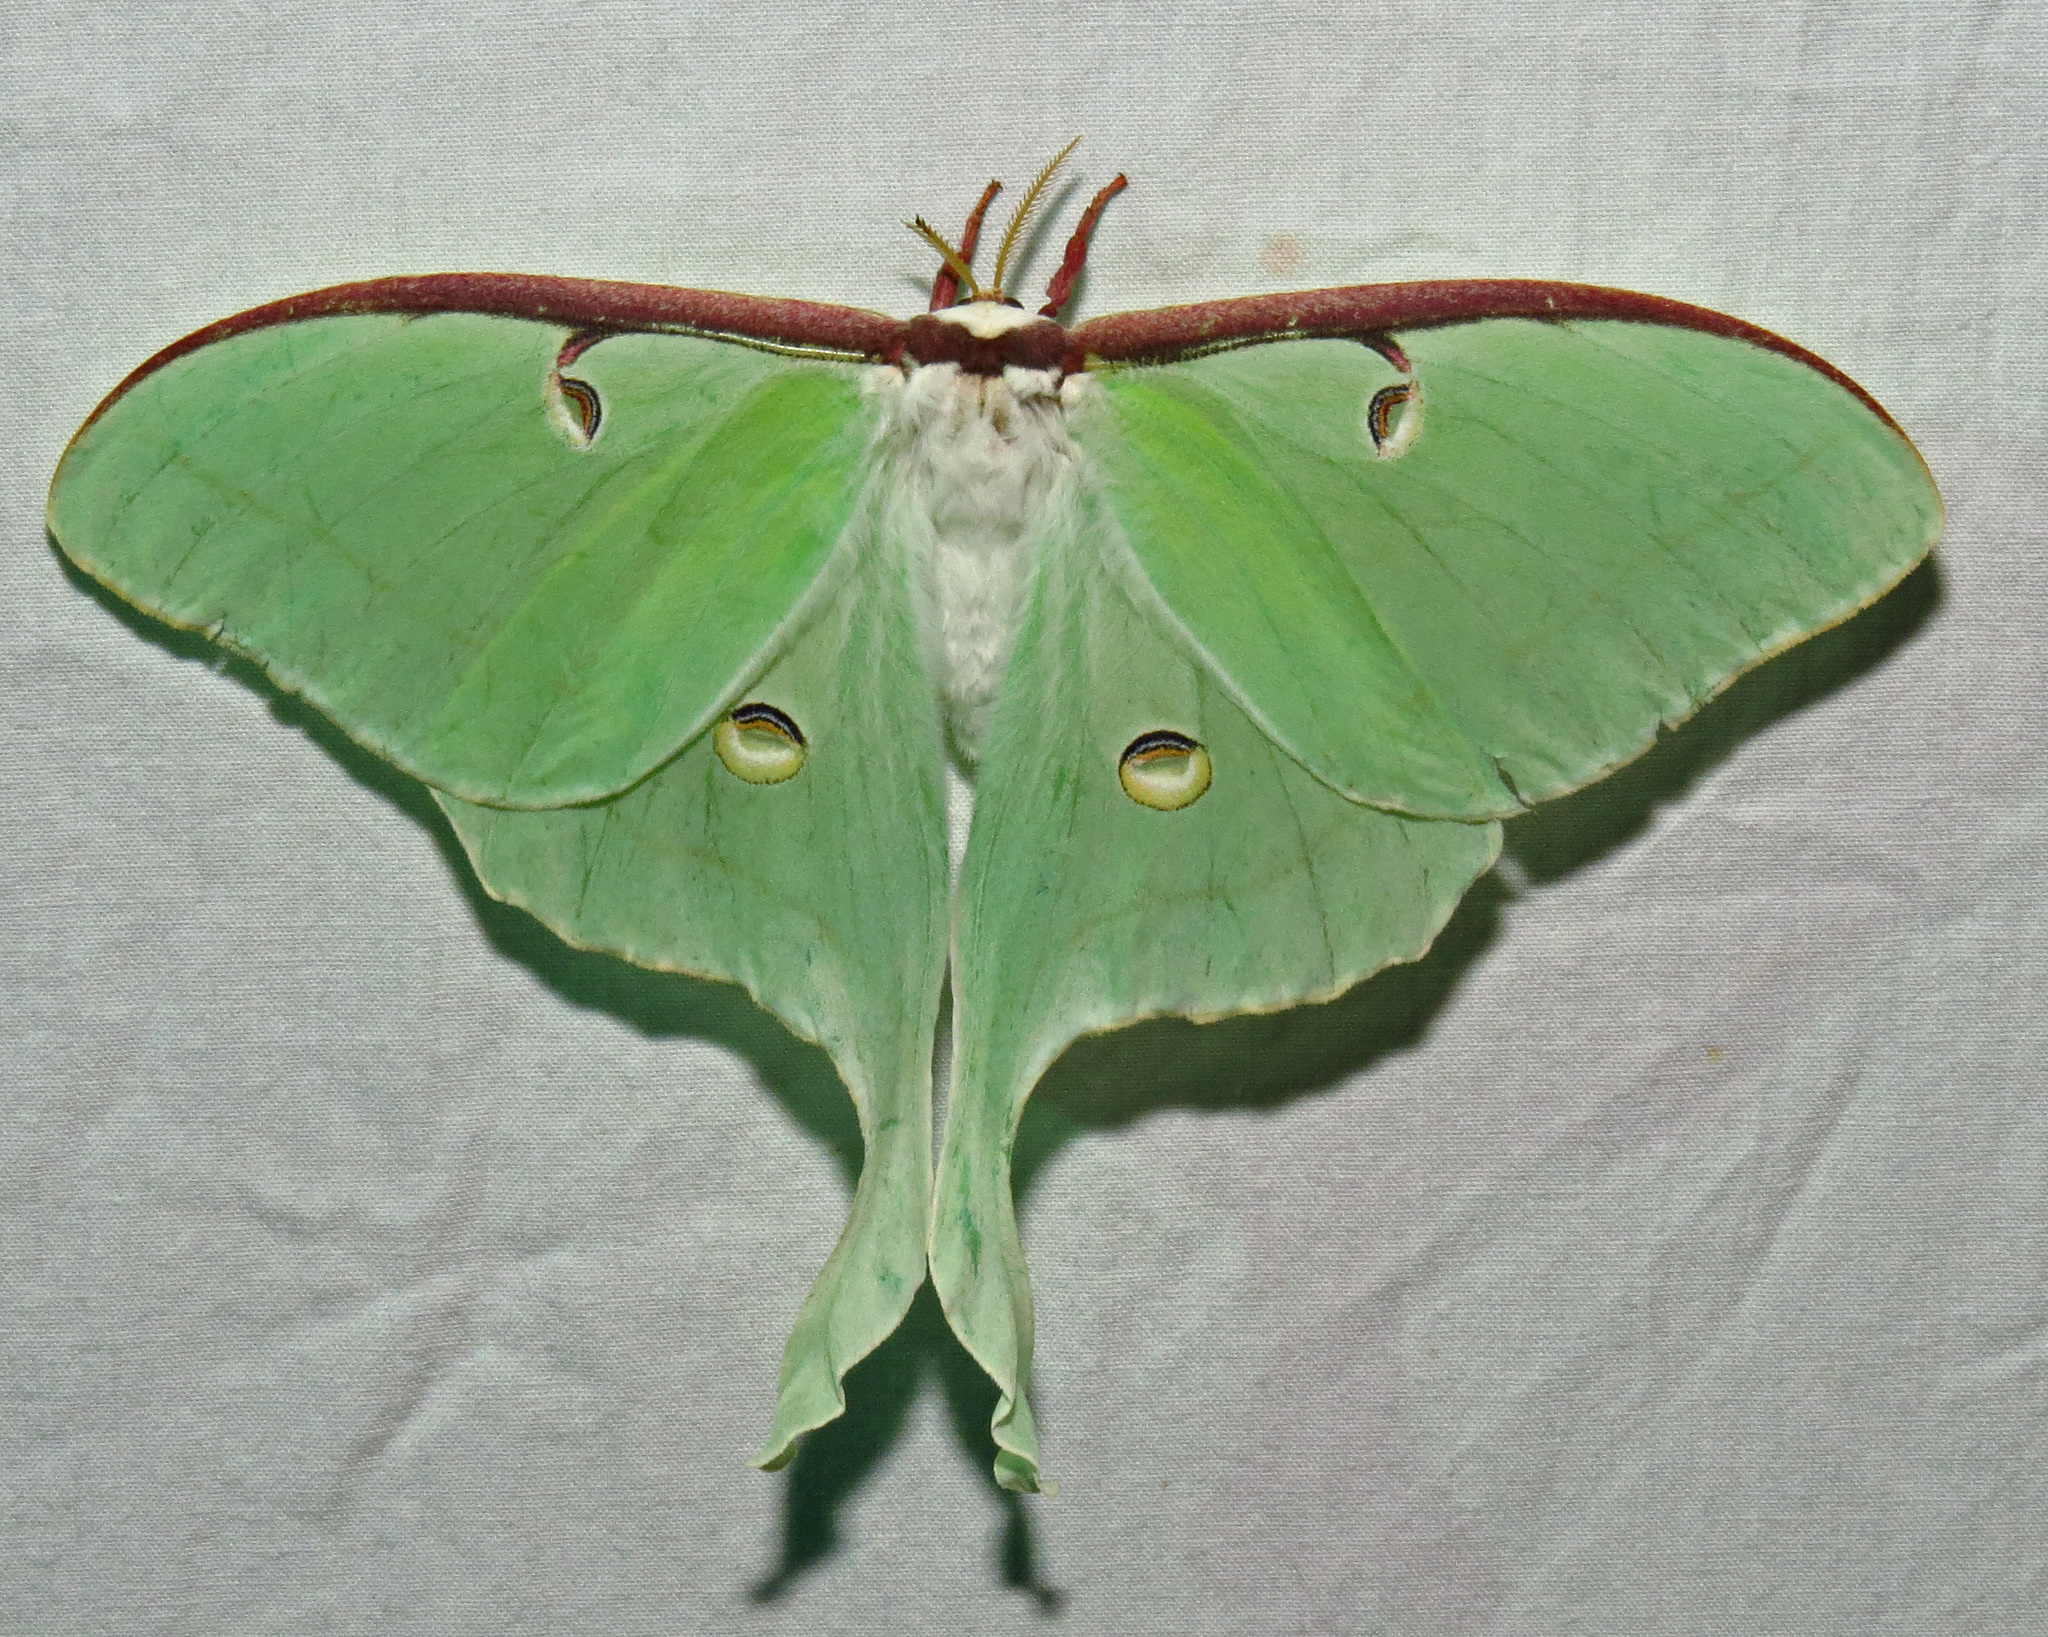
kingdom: Animalia
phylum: Arthropoda
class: Insecta
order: Lepidoptera
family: Saturniidae
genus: Actias
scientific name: Actias luna
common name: Luna moth
